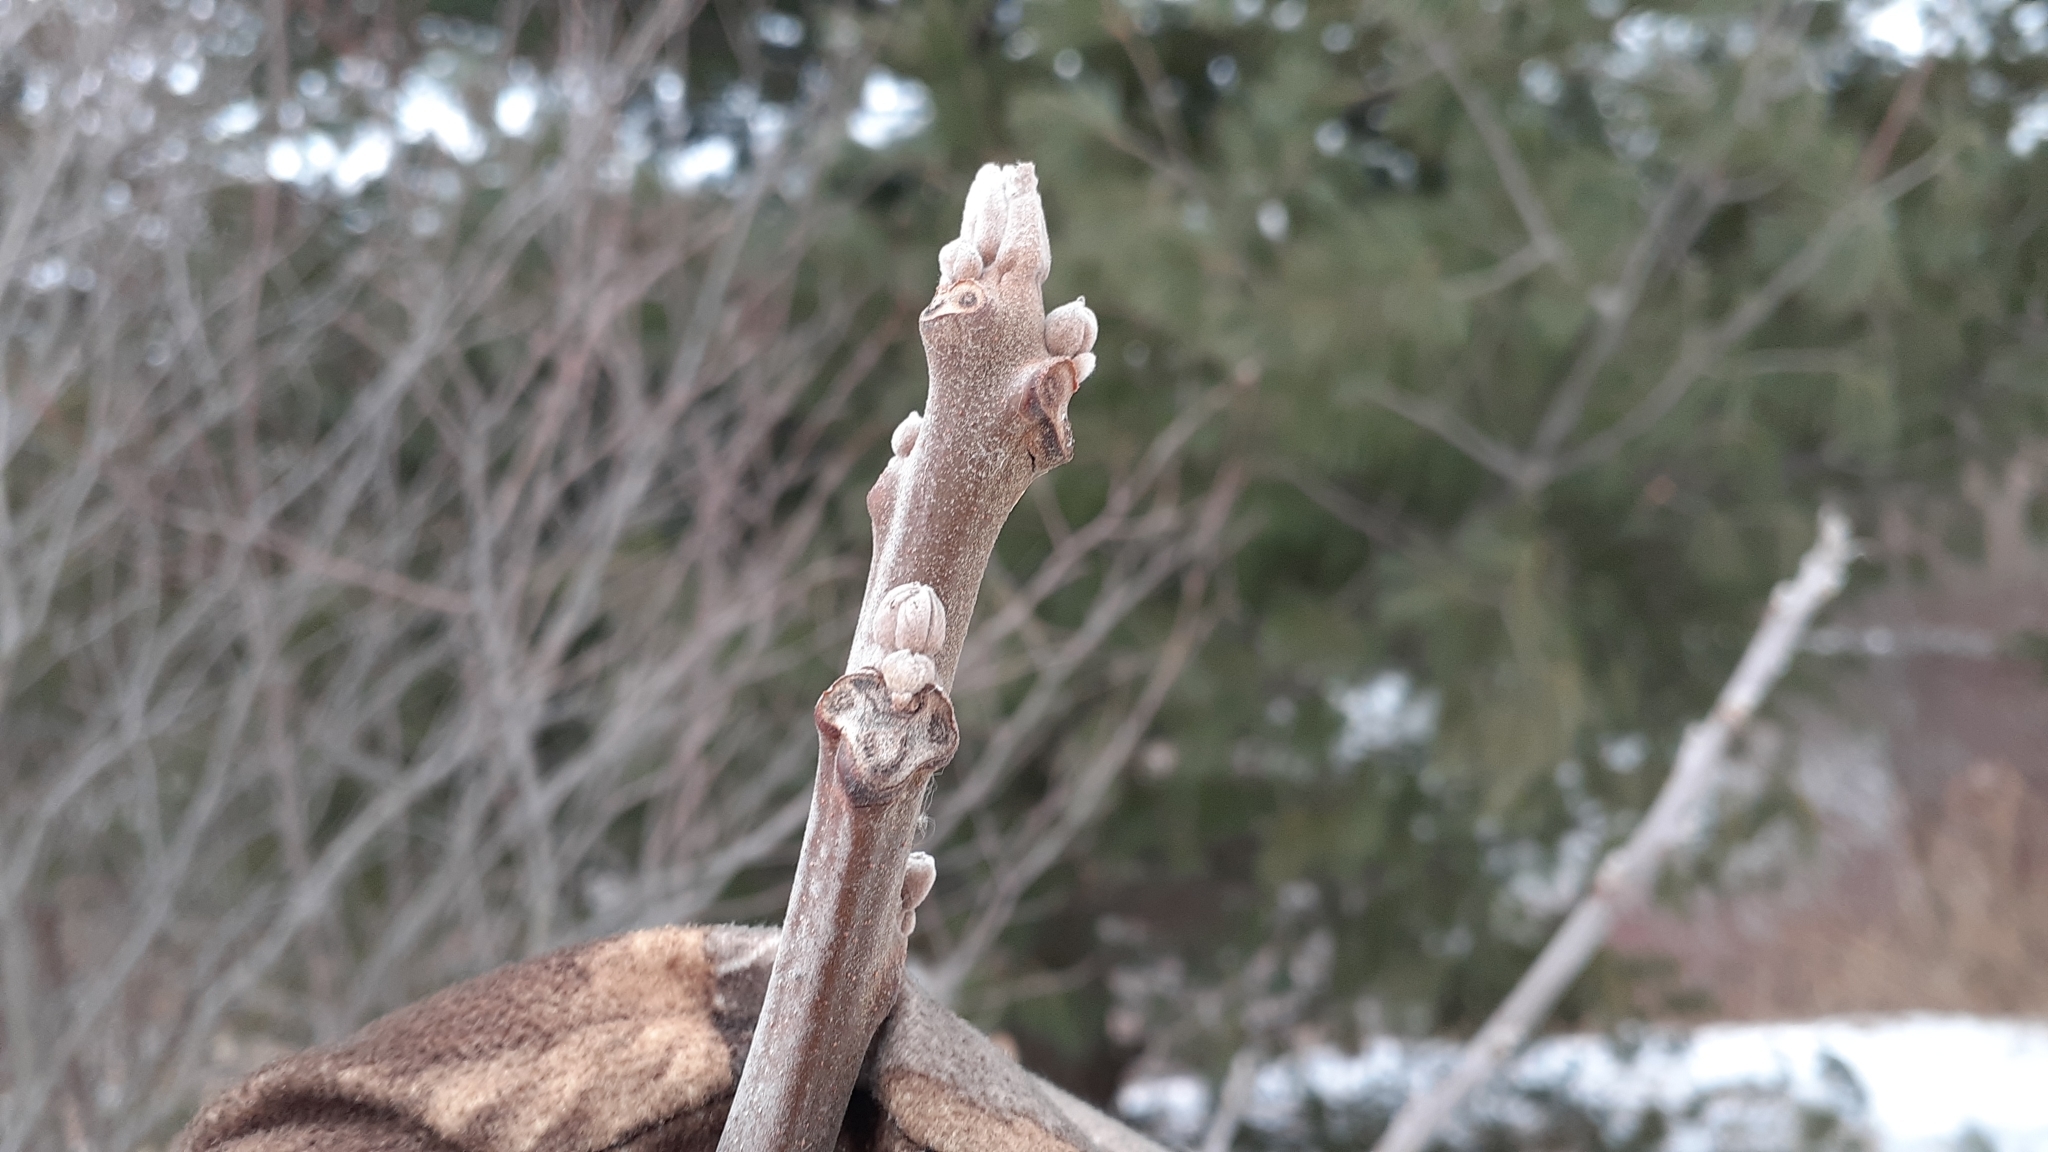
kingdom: Plantae
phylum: Tracheophyta
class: Magnoliopsida
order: Fagales
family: Juglandaceae
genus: Juglans
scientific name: Juglans nigra
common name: Black walnut
